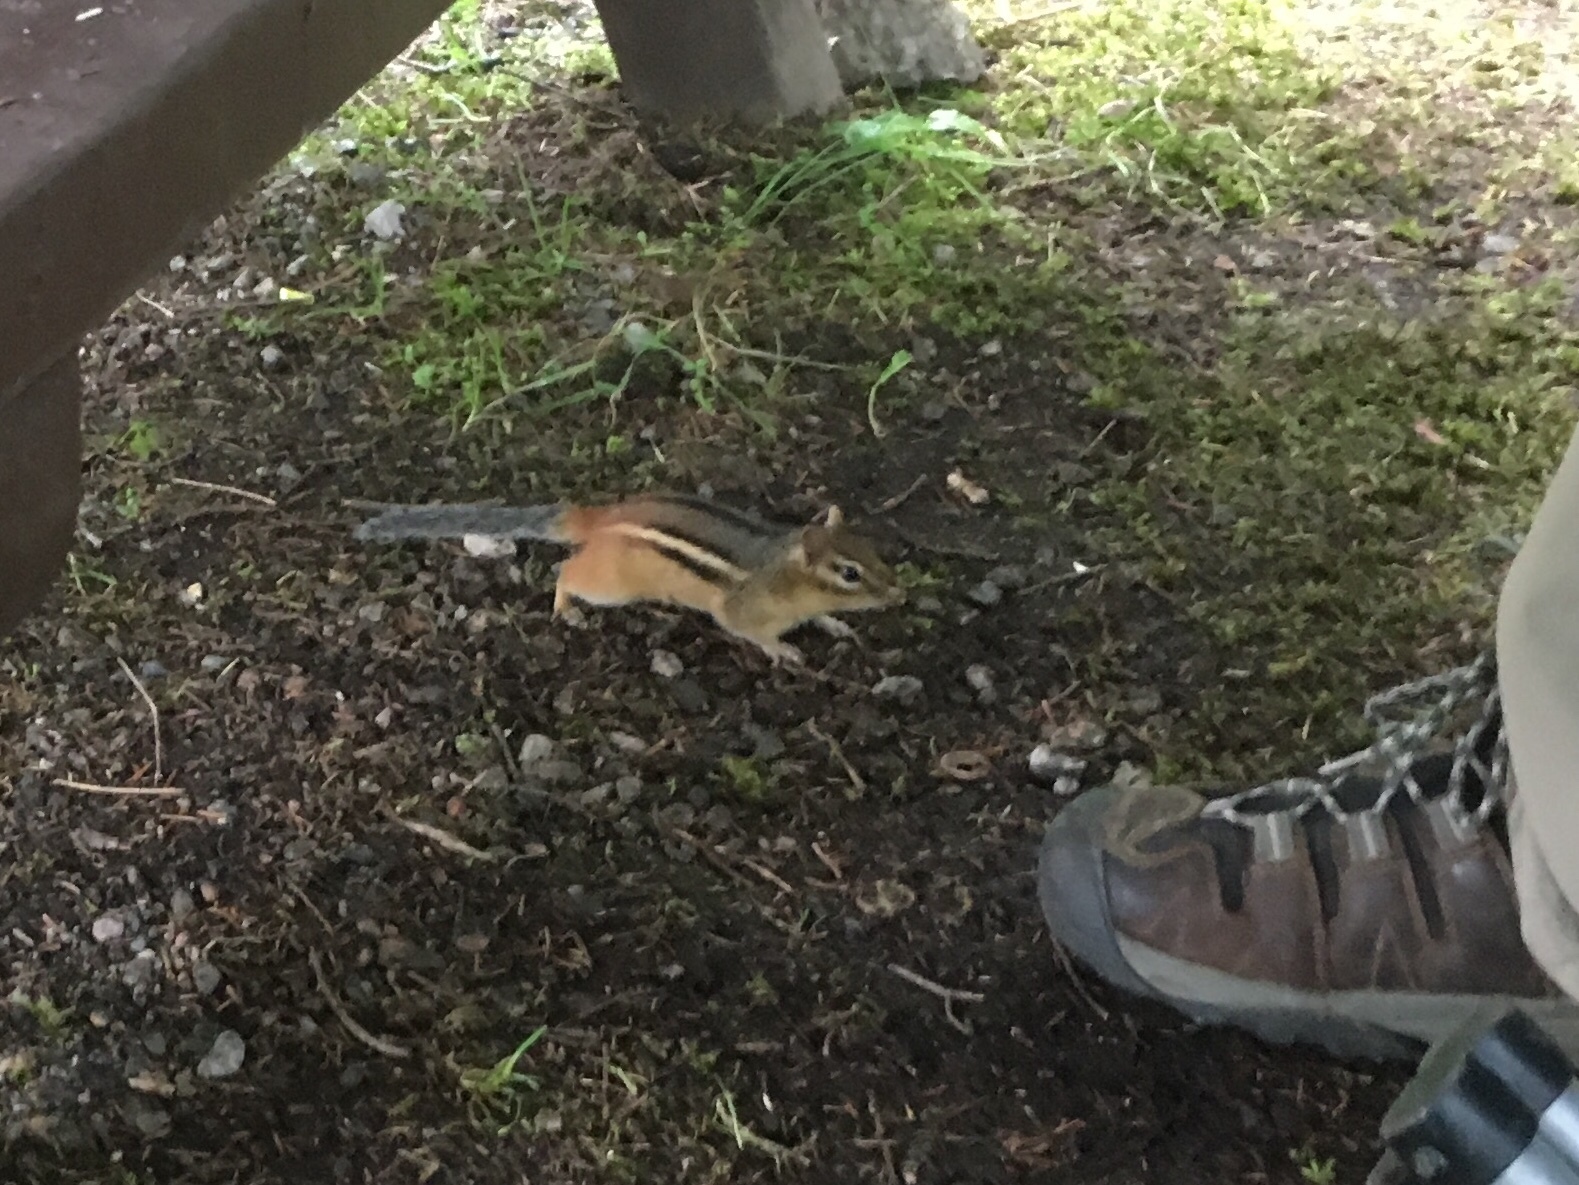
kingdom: Animalia
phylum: Chordata
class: Mammalia
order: Rodentia
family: Sciuridae
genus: Tamias
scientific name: Tamias striatus
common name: Eastern chipmunk
